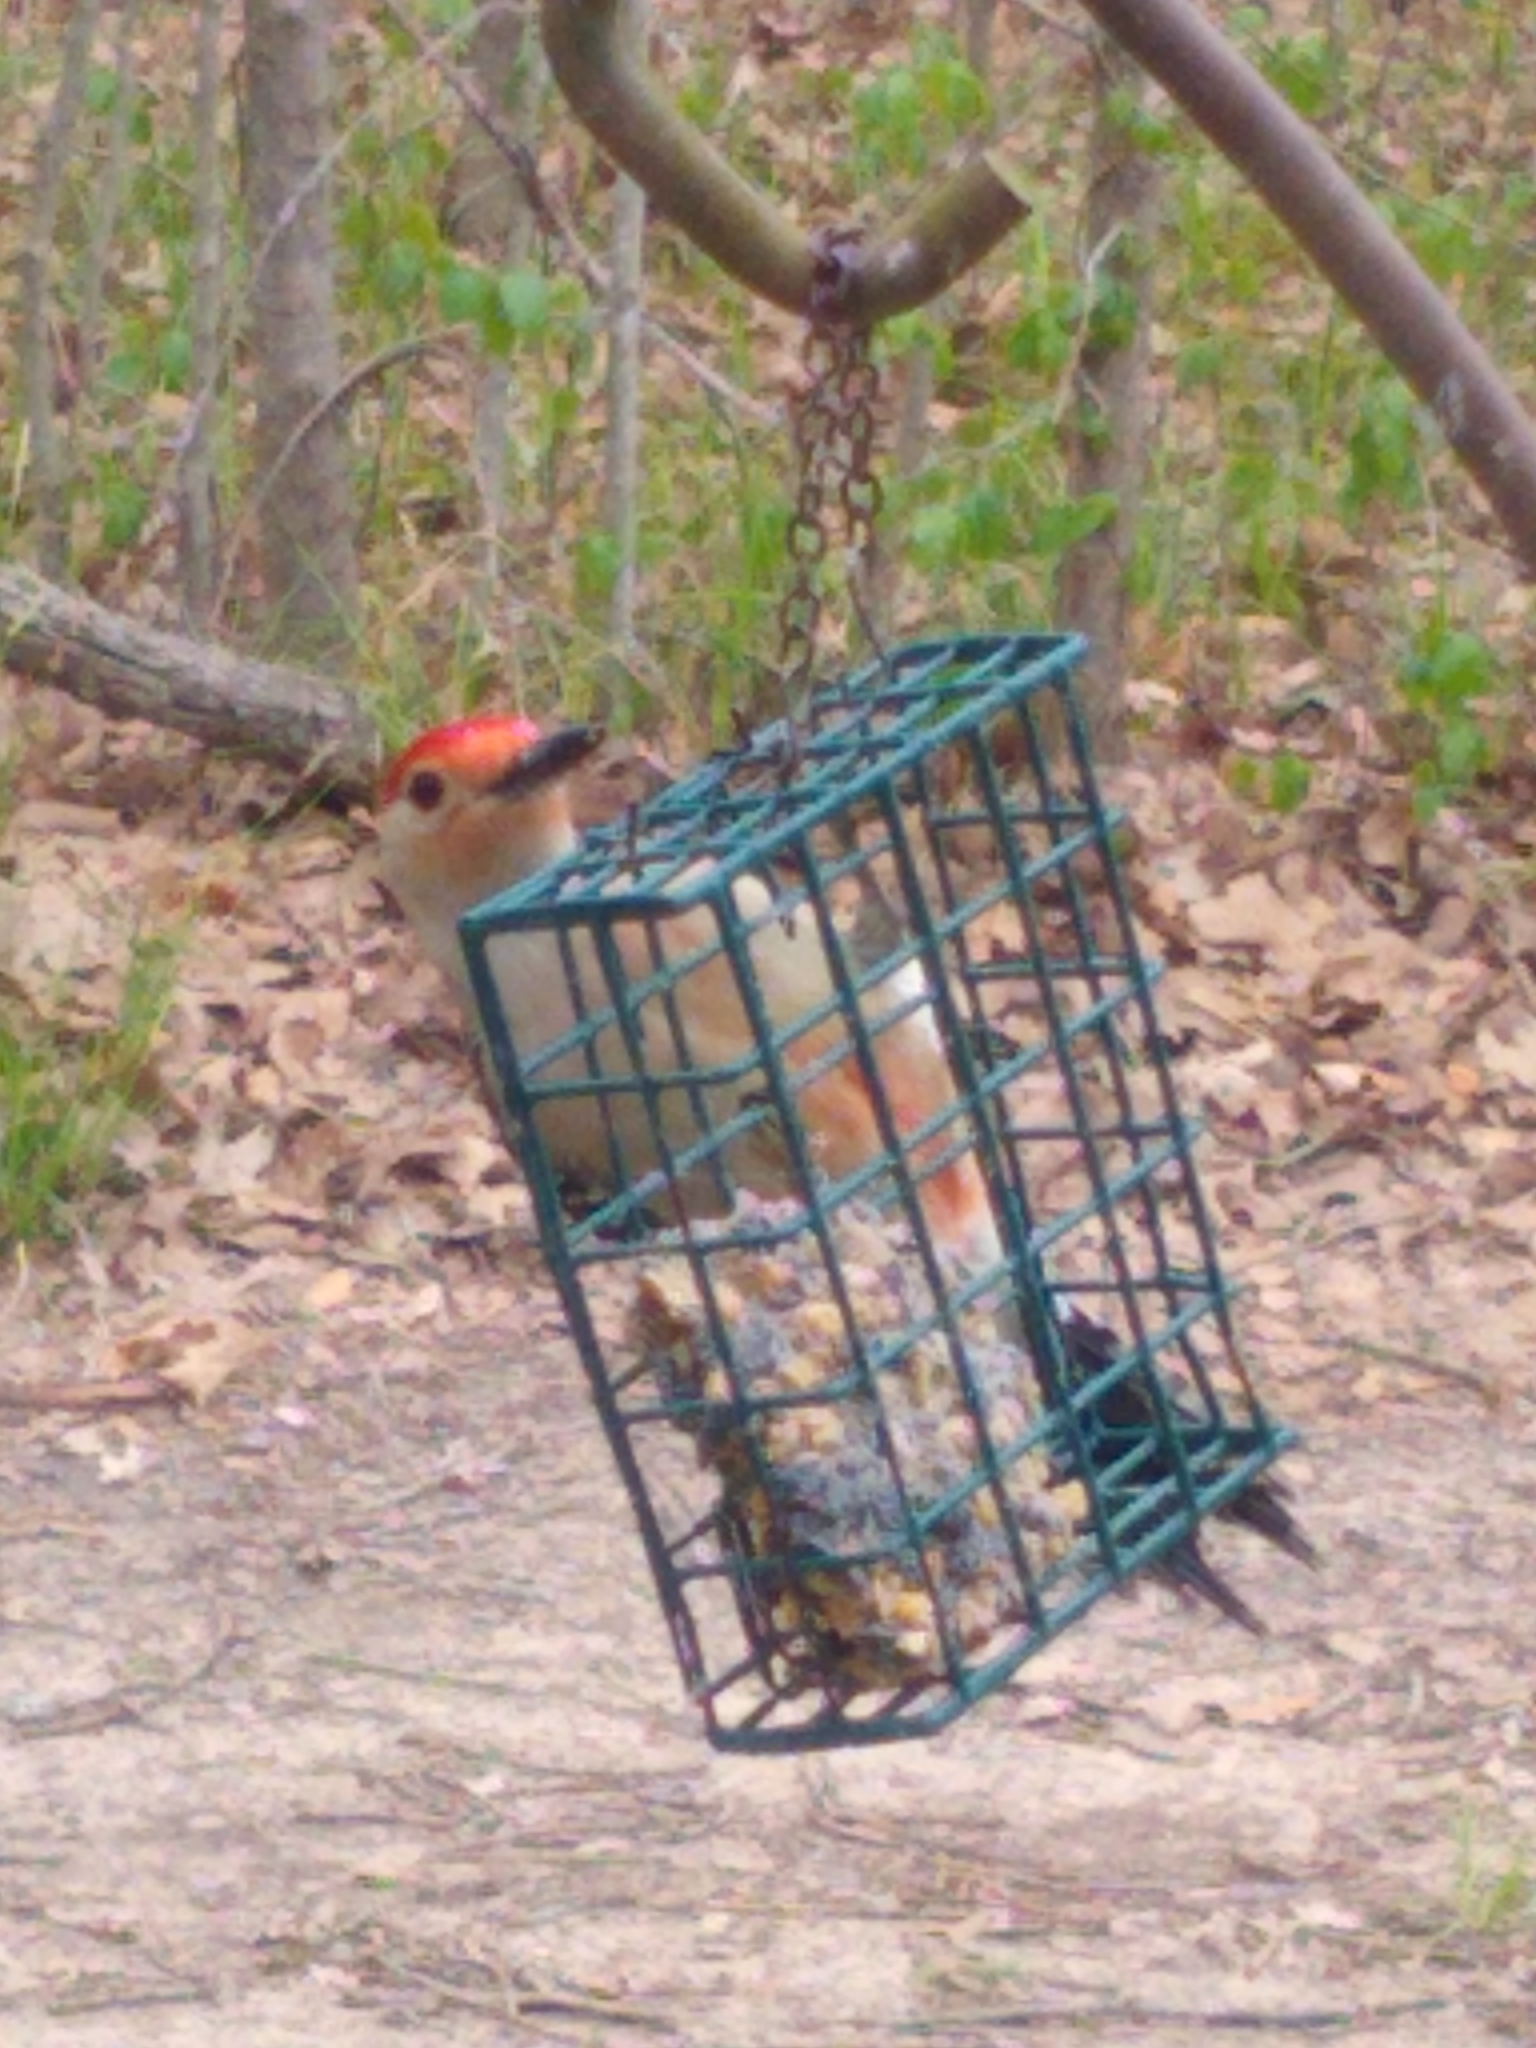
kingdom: Animalia
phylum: Chordata
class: Aves
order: Piciformes
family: Picidae
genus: Melanerpes
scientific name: Melanerpes carolinus
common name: Red-bellied woodpecker
